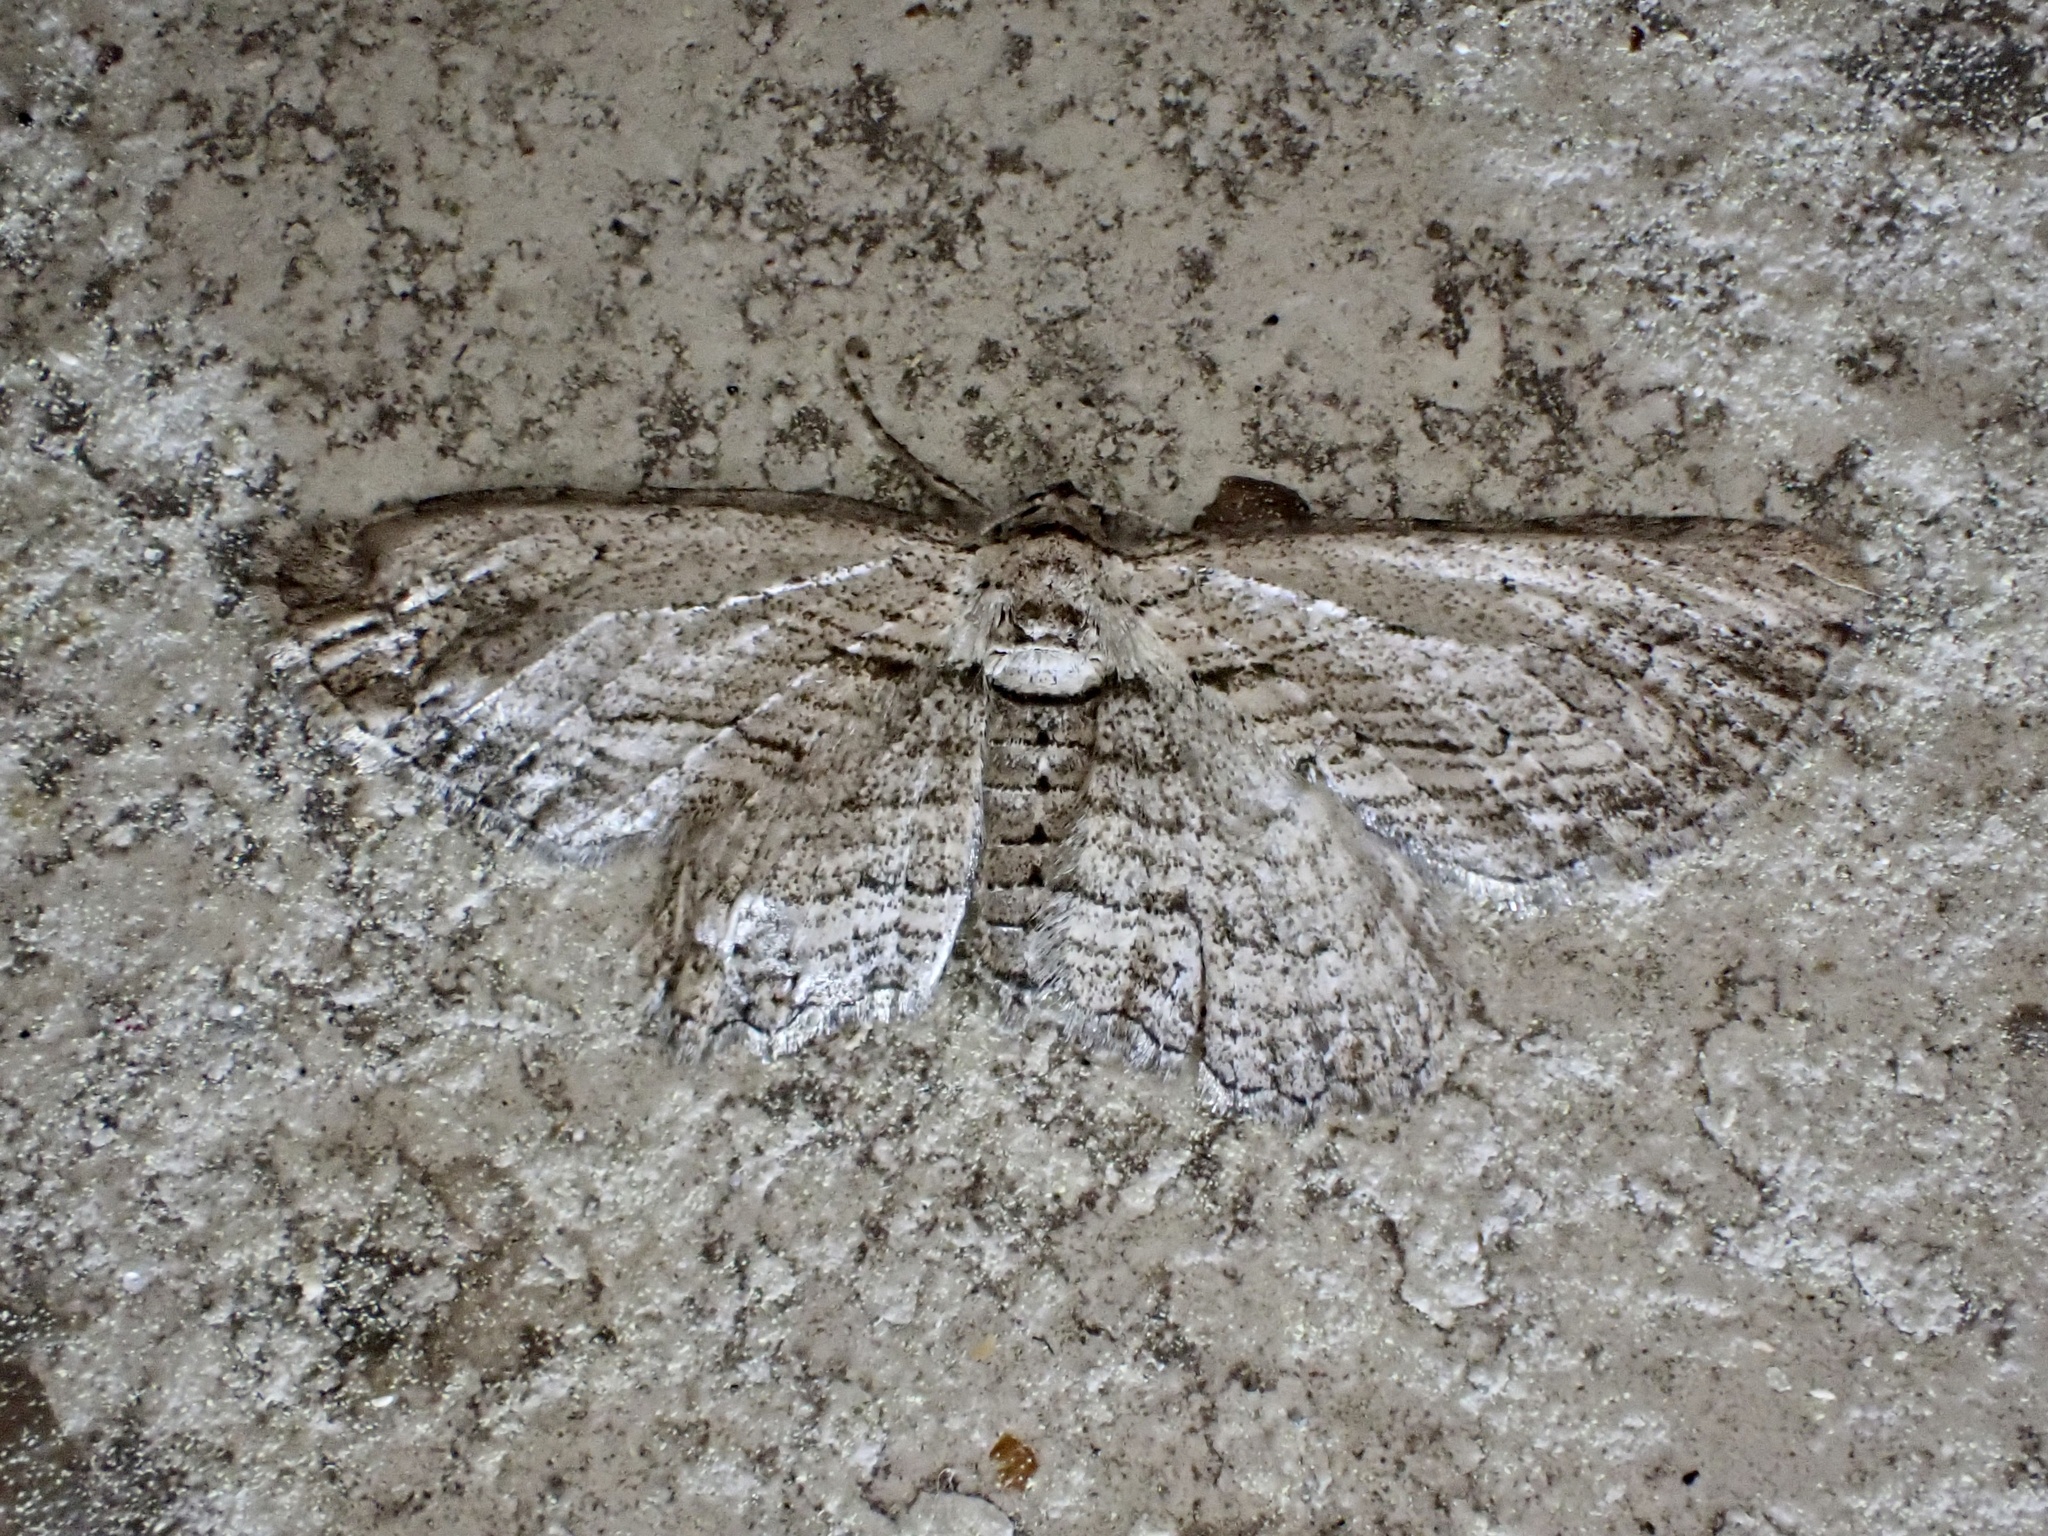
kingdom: Animalia
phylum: Arthropoda
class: Insecta
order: Lepidoptera
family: Geometridae
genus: Horisme
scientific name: Horisme intestinata
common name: Brown bark carpet
